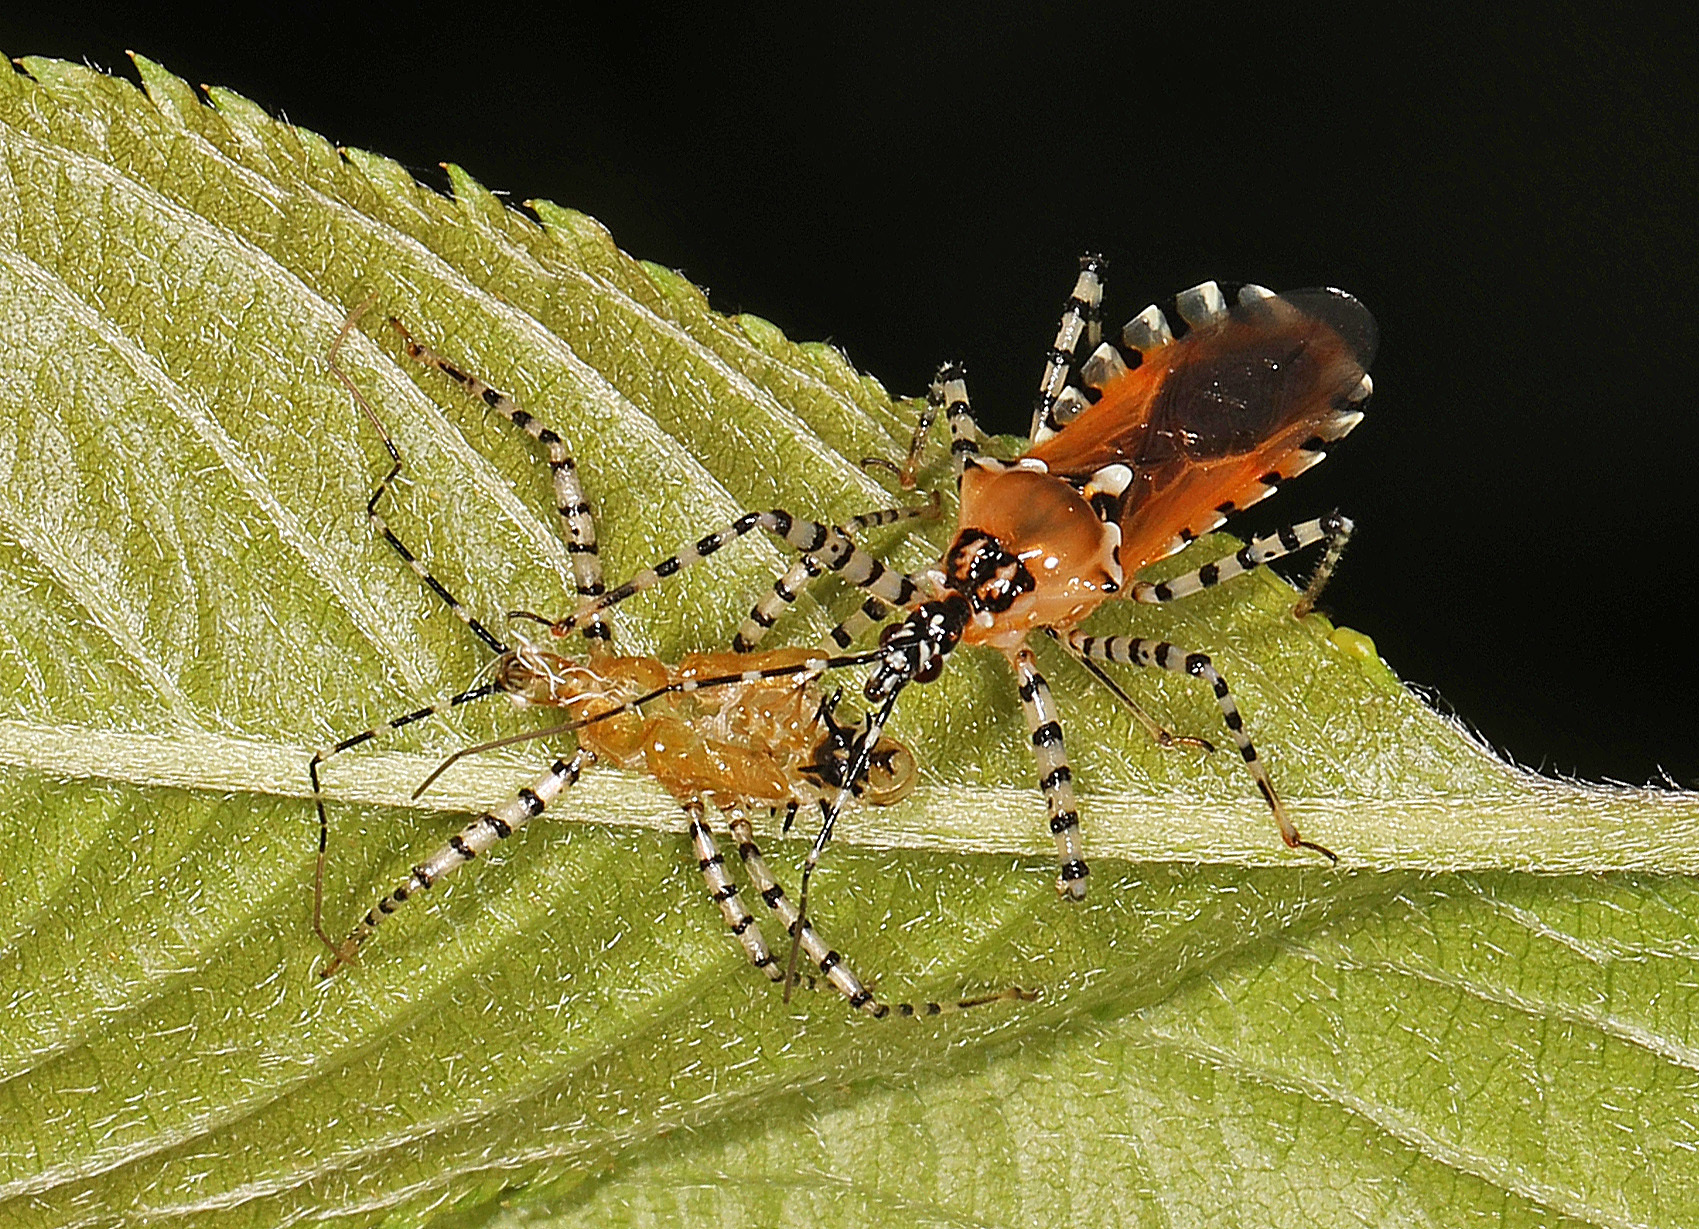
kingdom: Animalia
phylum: Arthropoda
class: Insecta
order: Hemiptera
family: Reduviidae
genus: Pselliopus
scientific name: Pselliopus cinctus
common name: Ringed assassin bug
